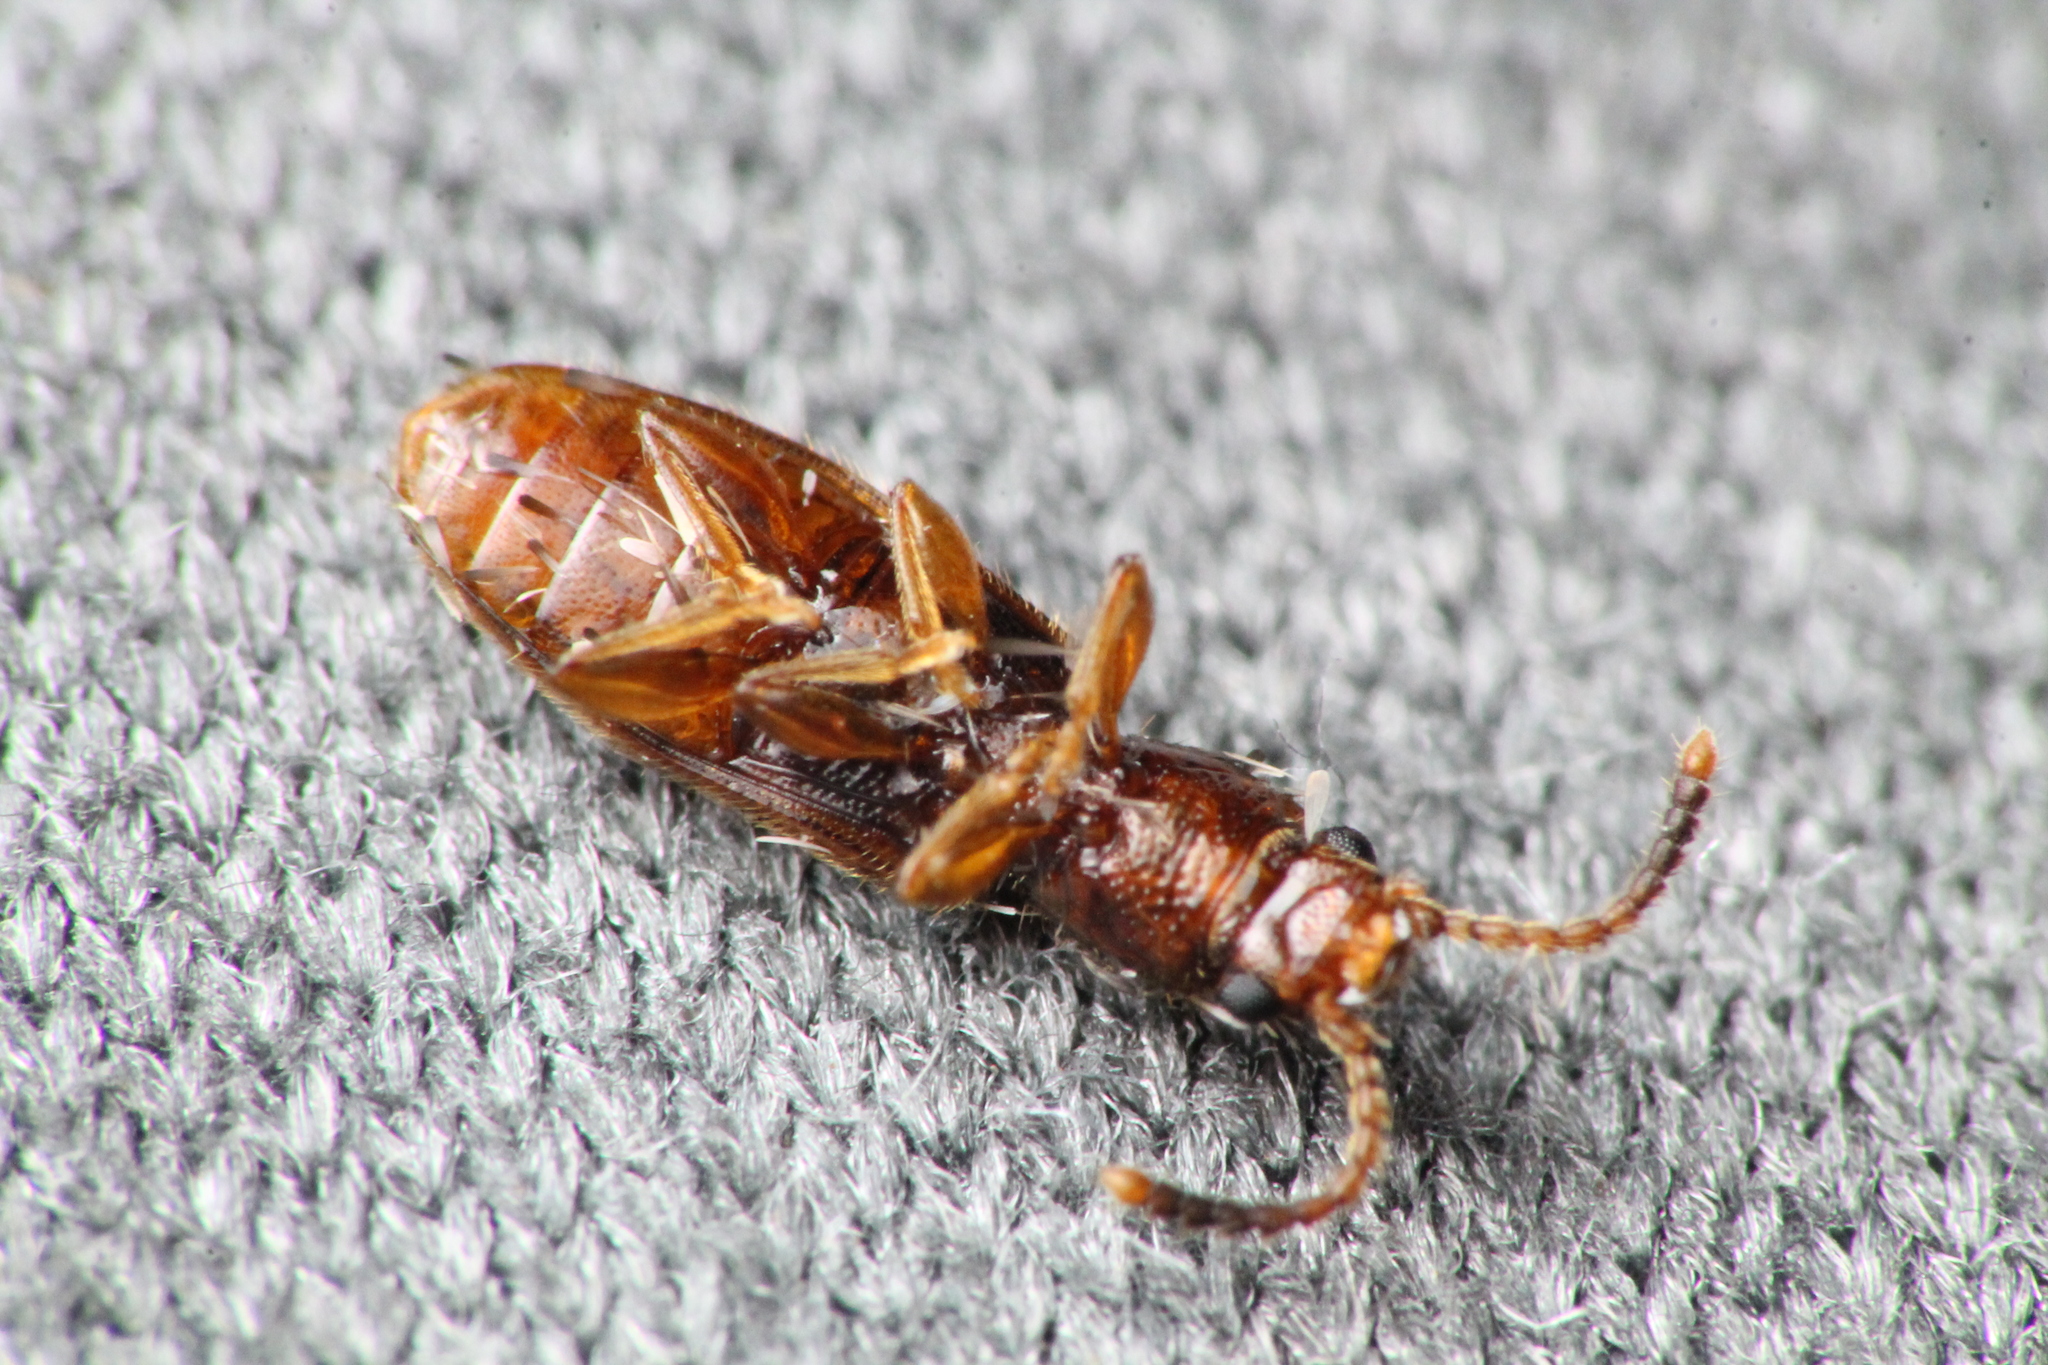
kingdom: Animalia
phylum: Arthropoda
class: Insecta
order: Coleoptera
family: Silvanidae
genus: Cryptamorpha
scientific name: Cryptamorpha desjardinsi
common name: Cryptamorpha
